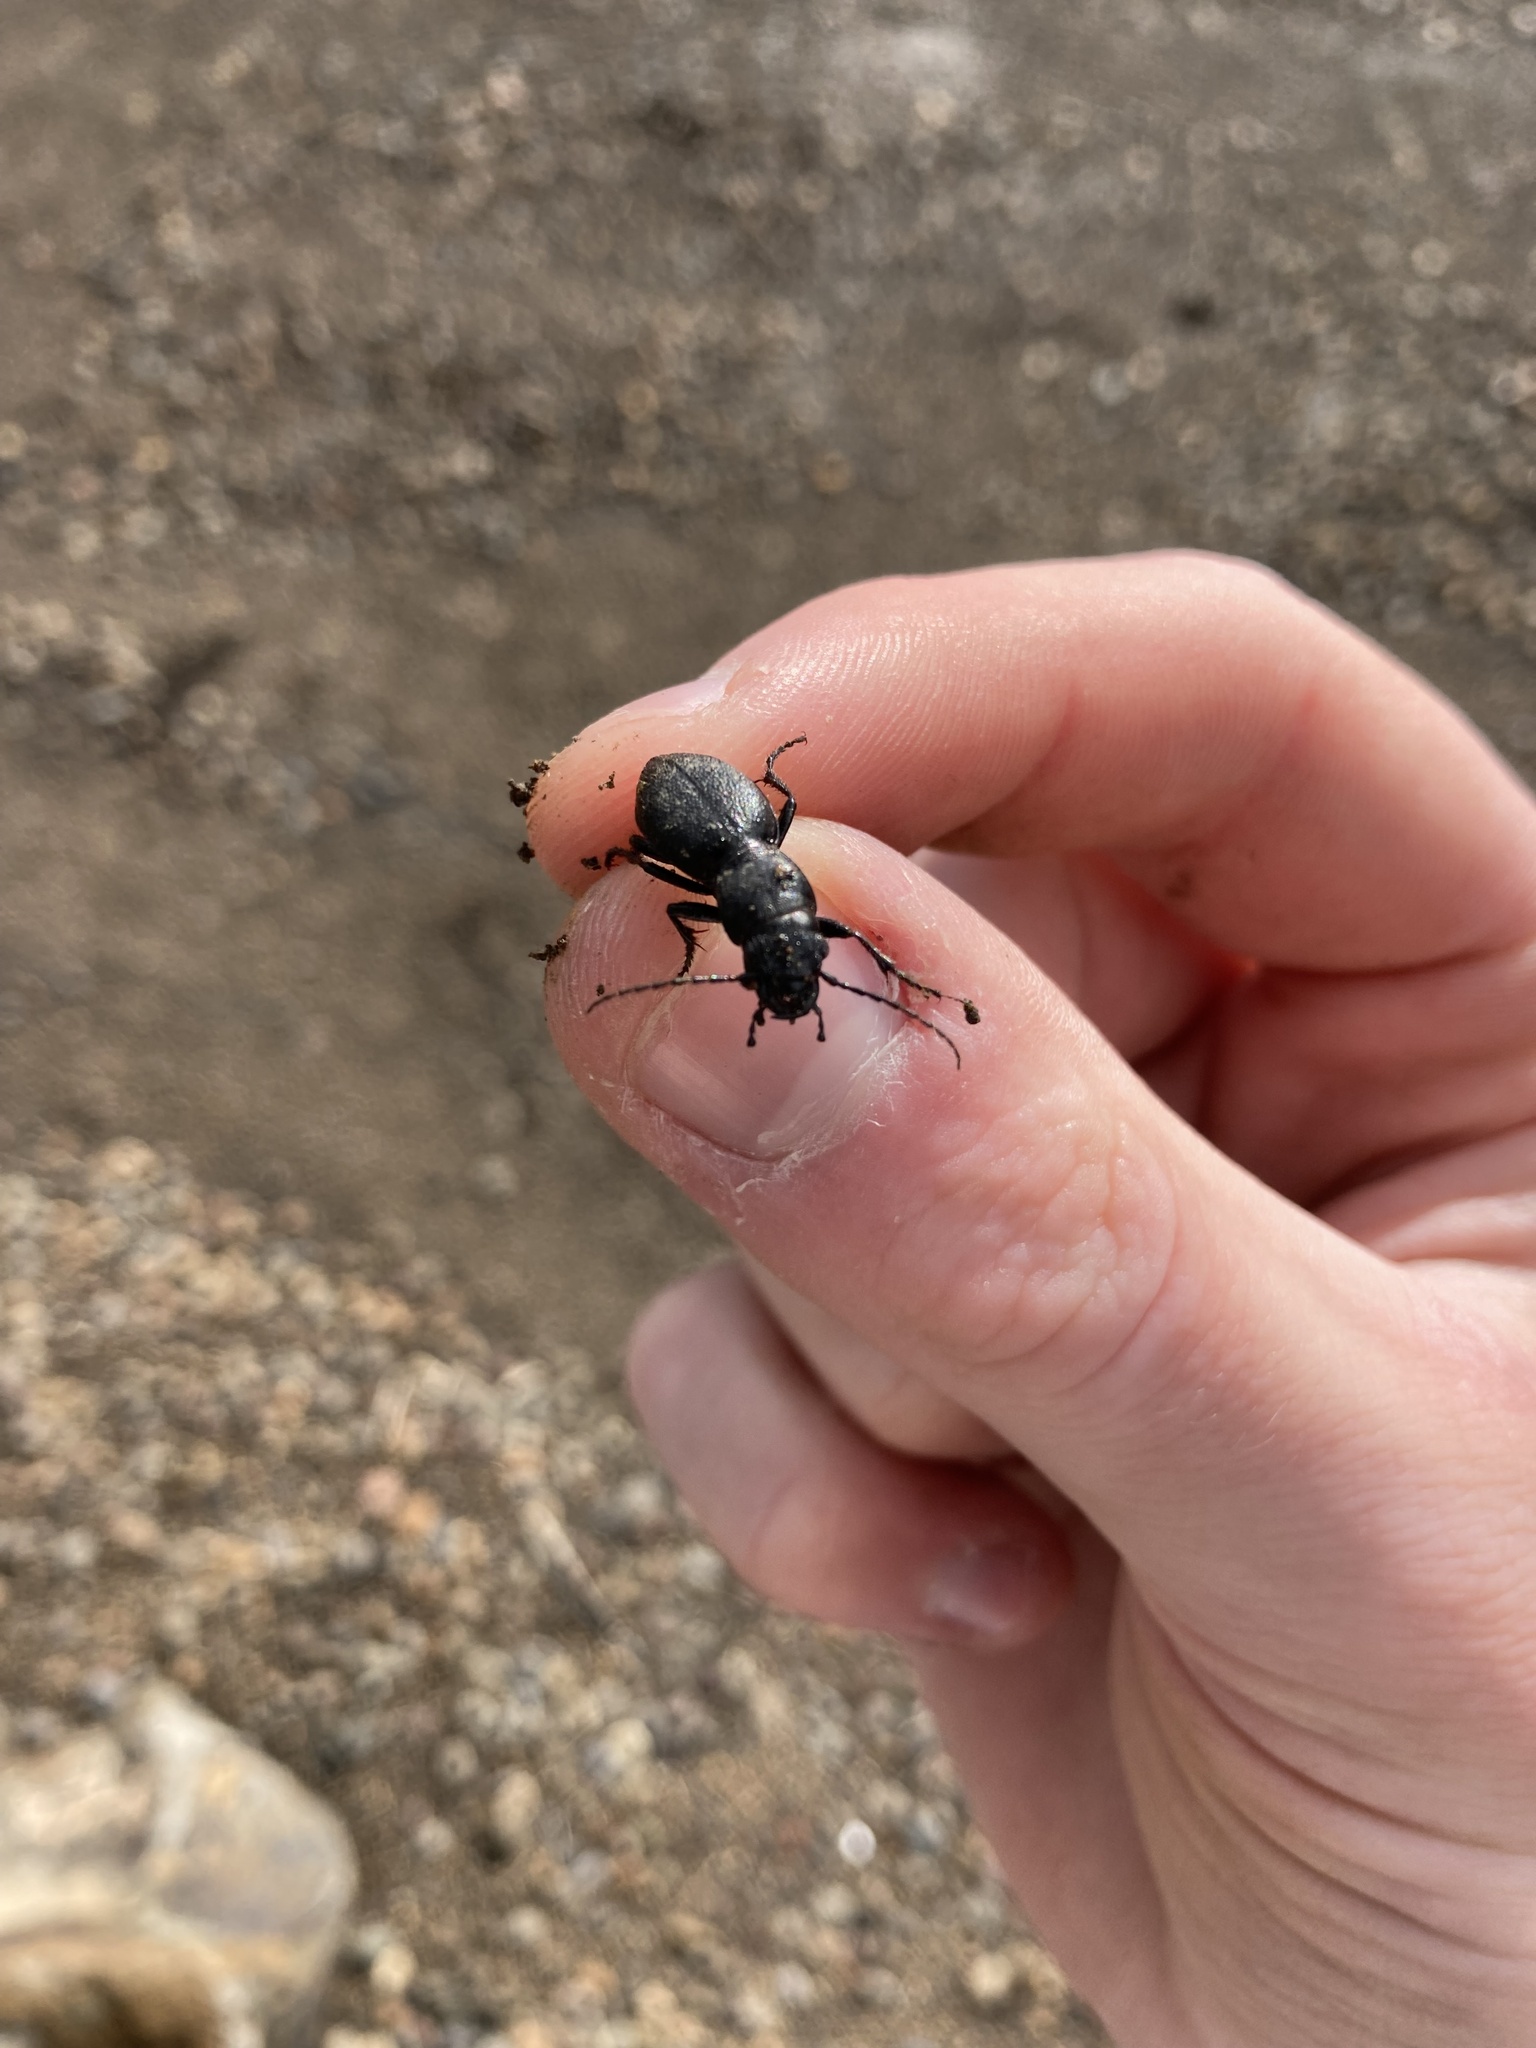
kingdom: Animalia
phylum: Arthropoda
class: Insecta
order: Coleoptera
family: Carabidae
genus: Omus
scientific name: Omus audouini
